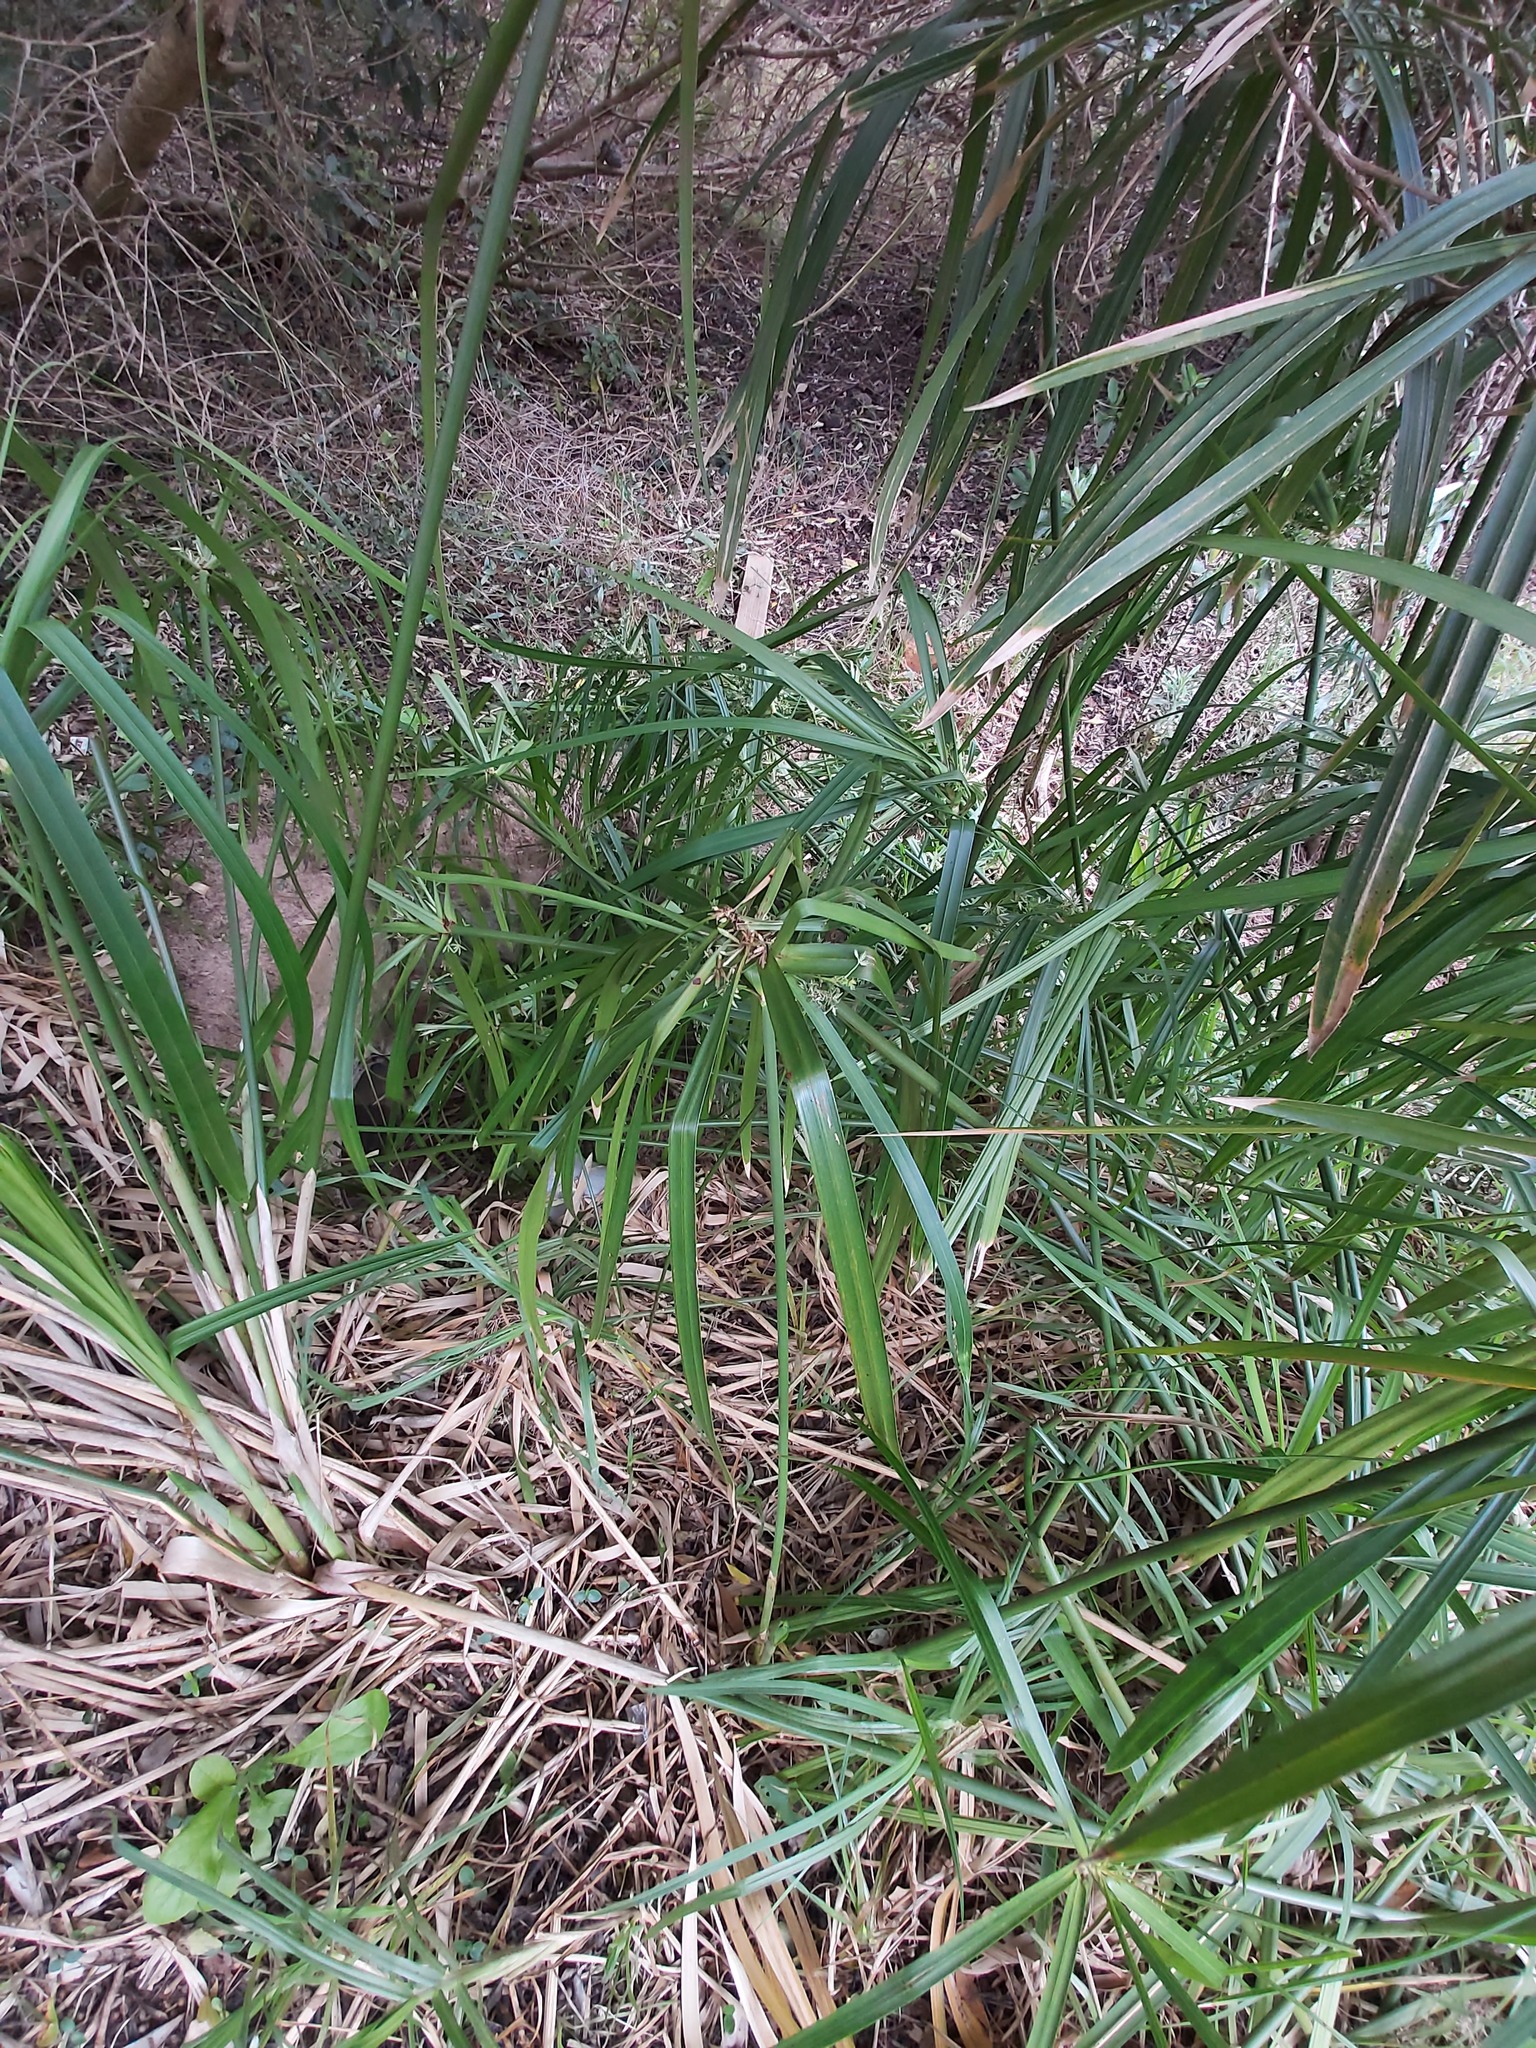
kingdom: Plantae
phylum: Tracheophyta
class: Liliopsida
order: Poales
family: Cyperaceae
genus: Cyperus
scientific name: Cyperus textilis
